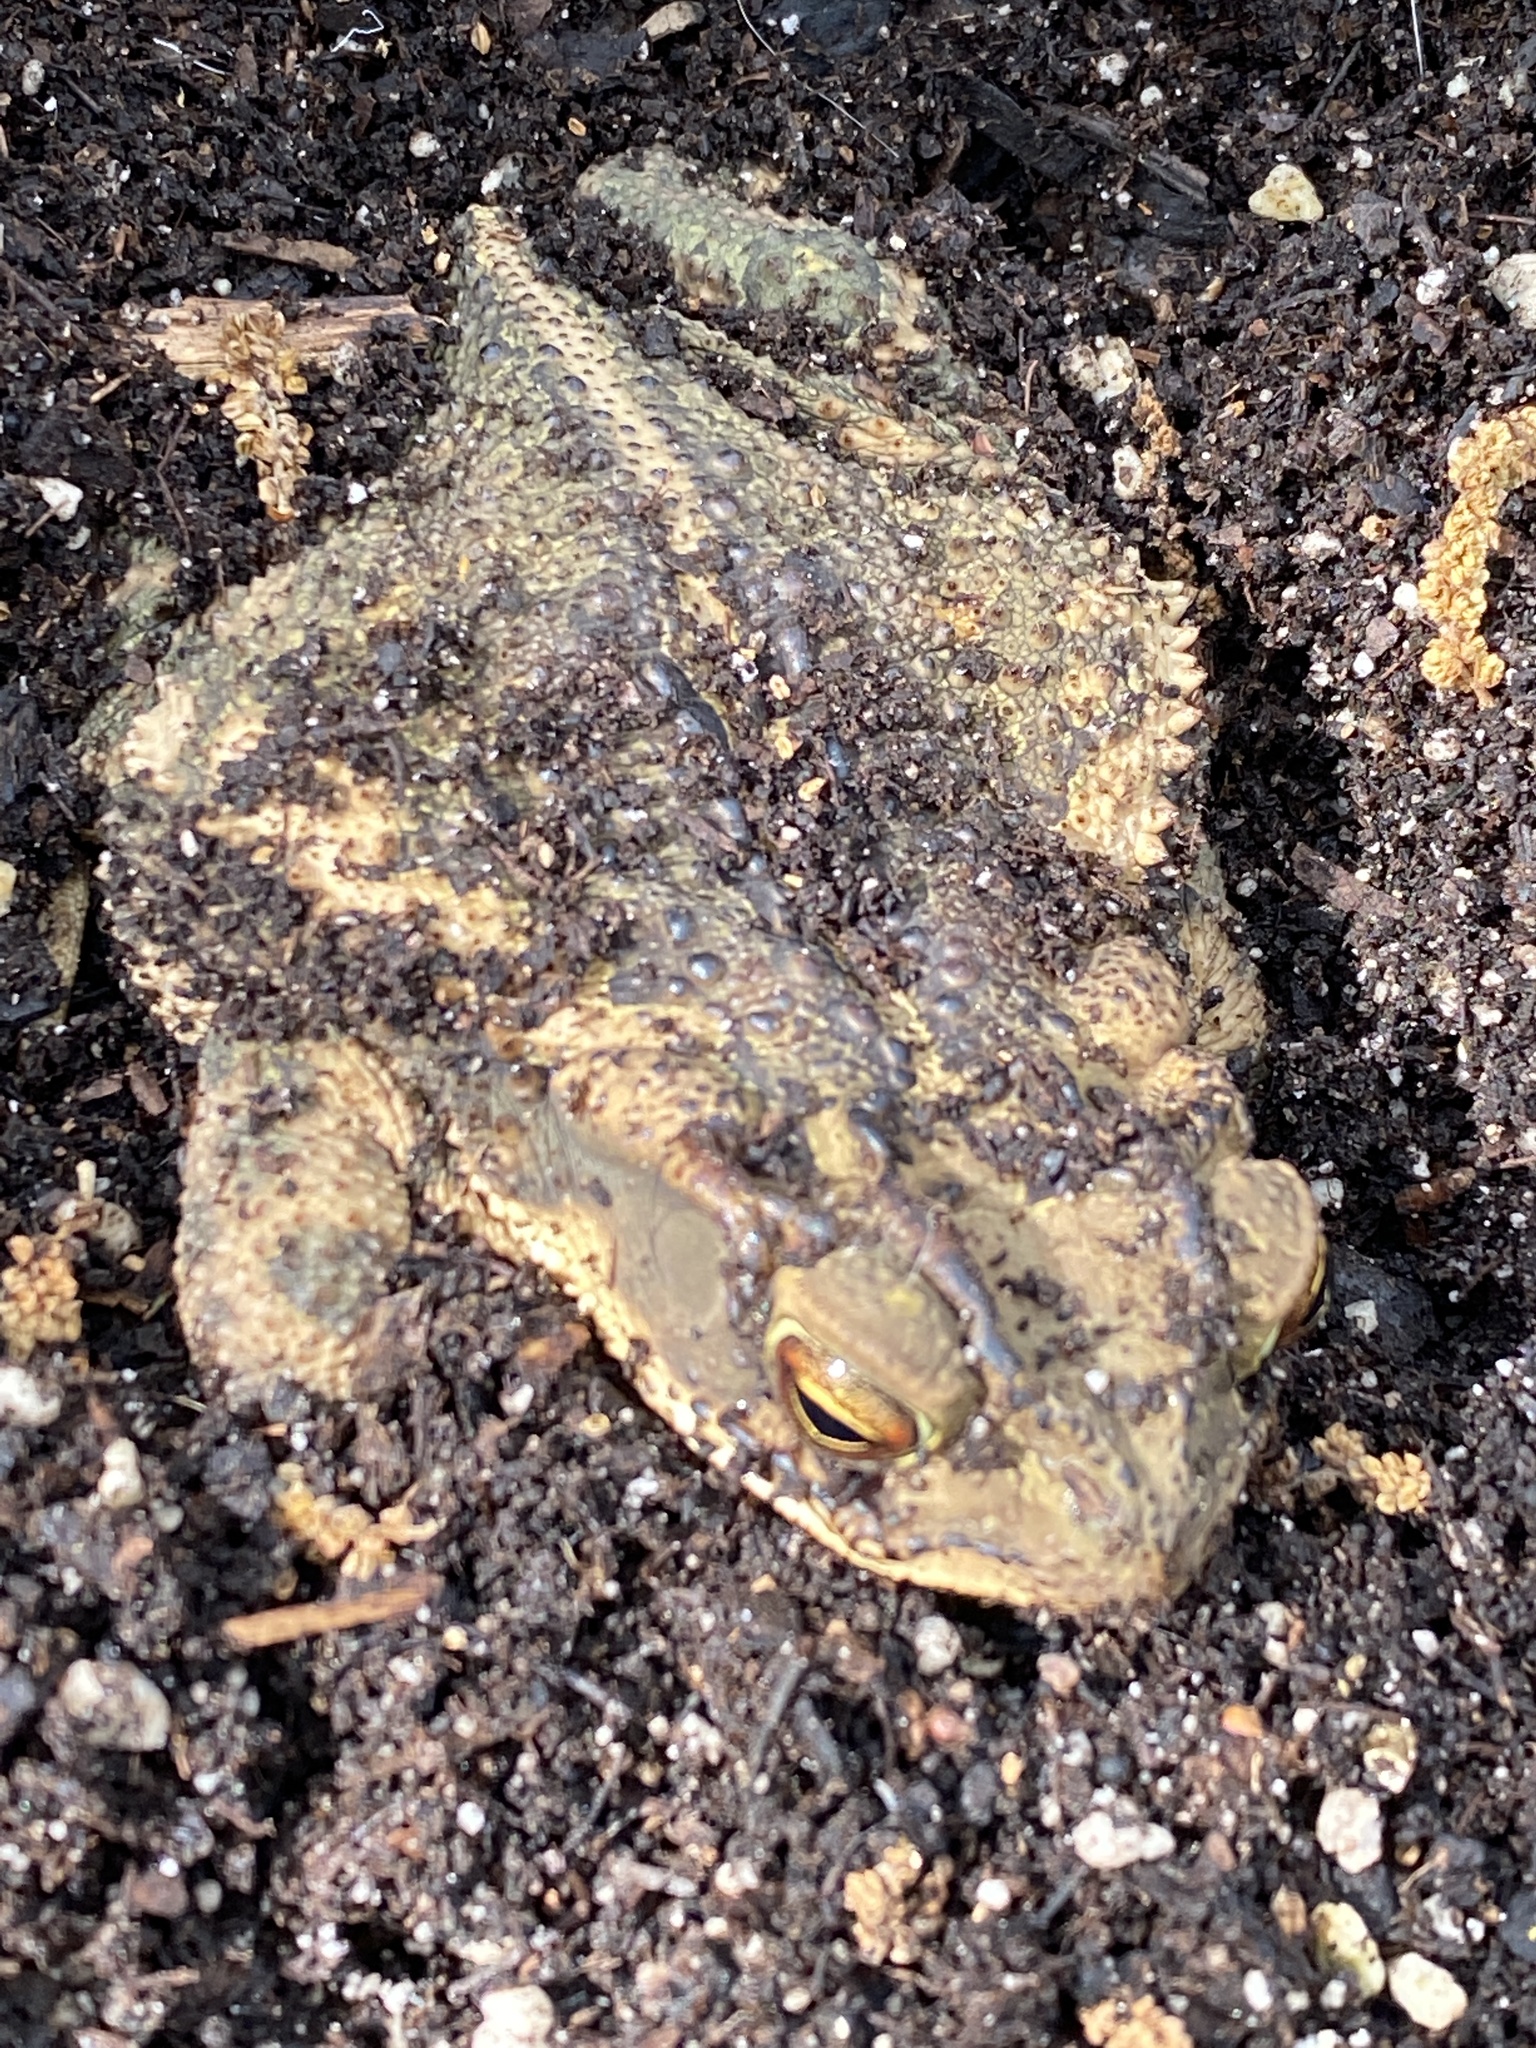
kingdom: Animalia
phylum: Chordata
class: Amphibia
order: Anura
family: Bufonidae
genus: Incilius
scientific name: Incilius nebulifer
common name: Gulf coast toad
